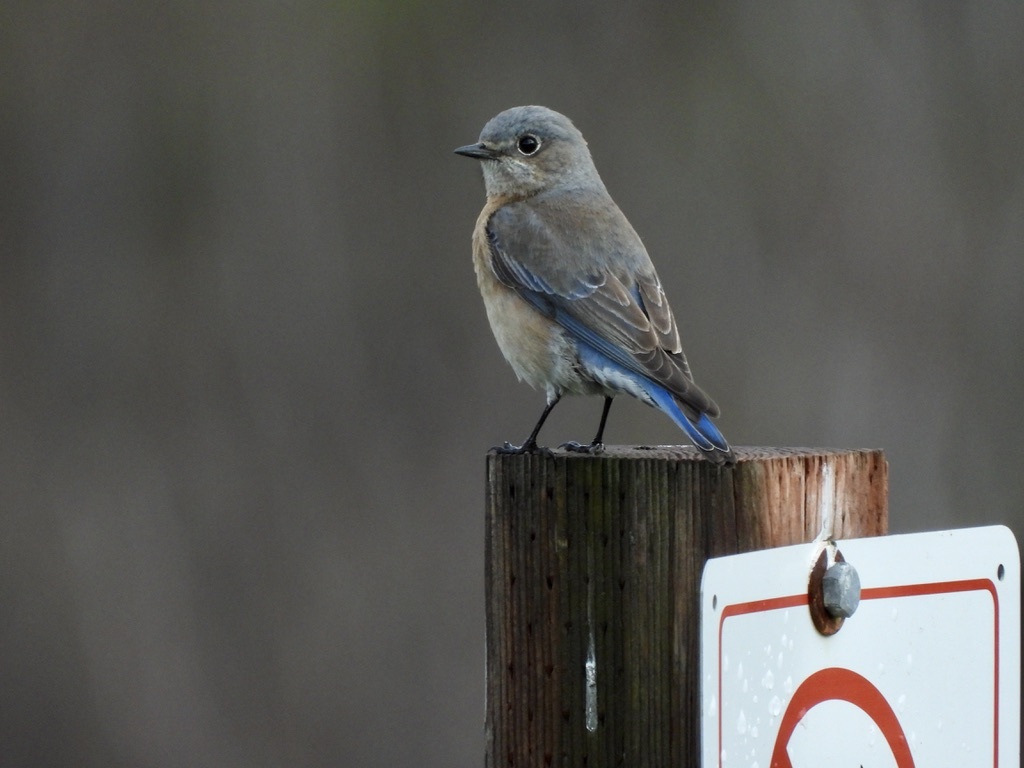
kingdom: Animalia
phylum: Chordata
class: Aves
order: Passeriformes
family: Turdidae
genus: Sialia
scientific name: Sialia mexicana
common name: Western bluebird
